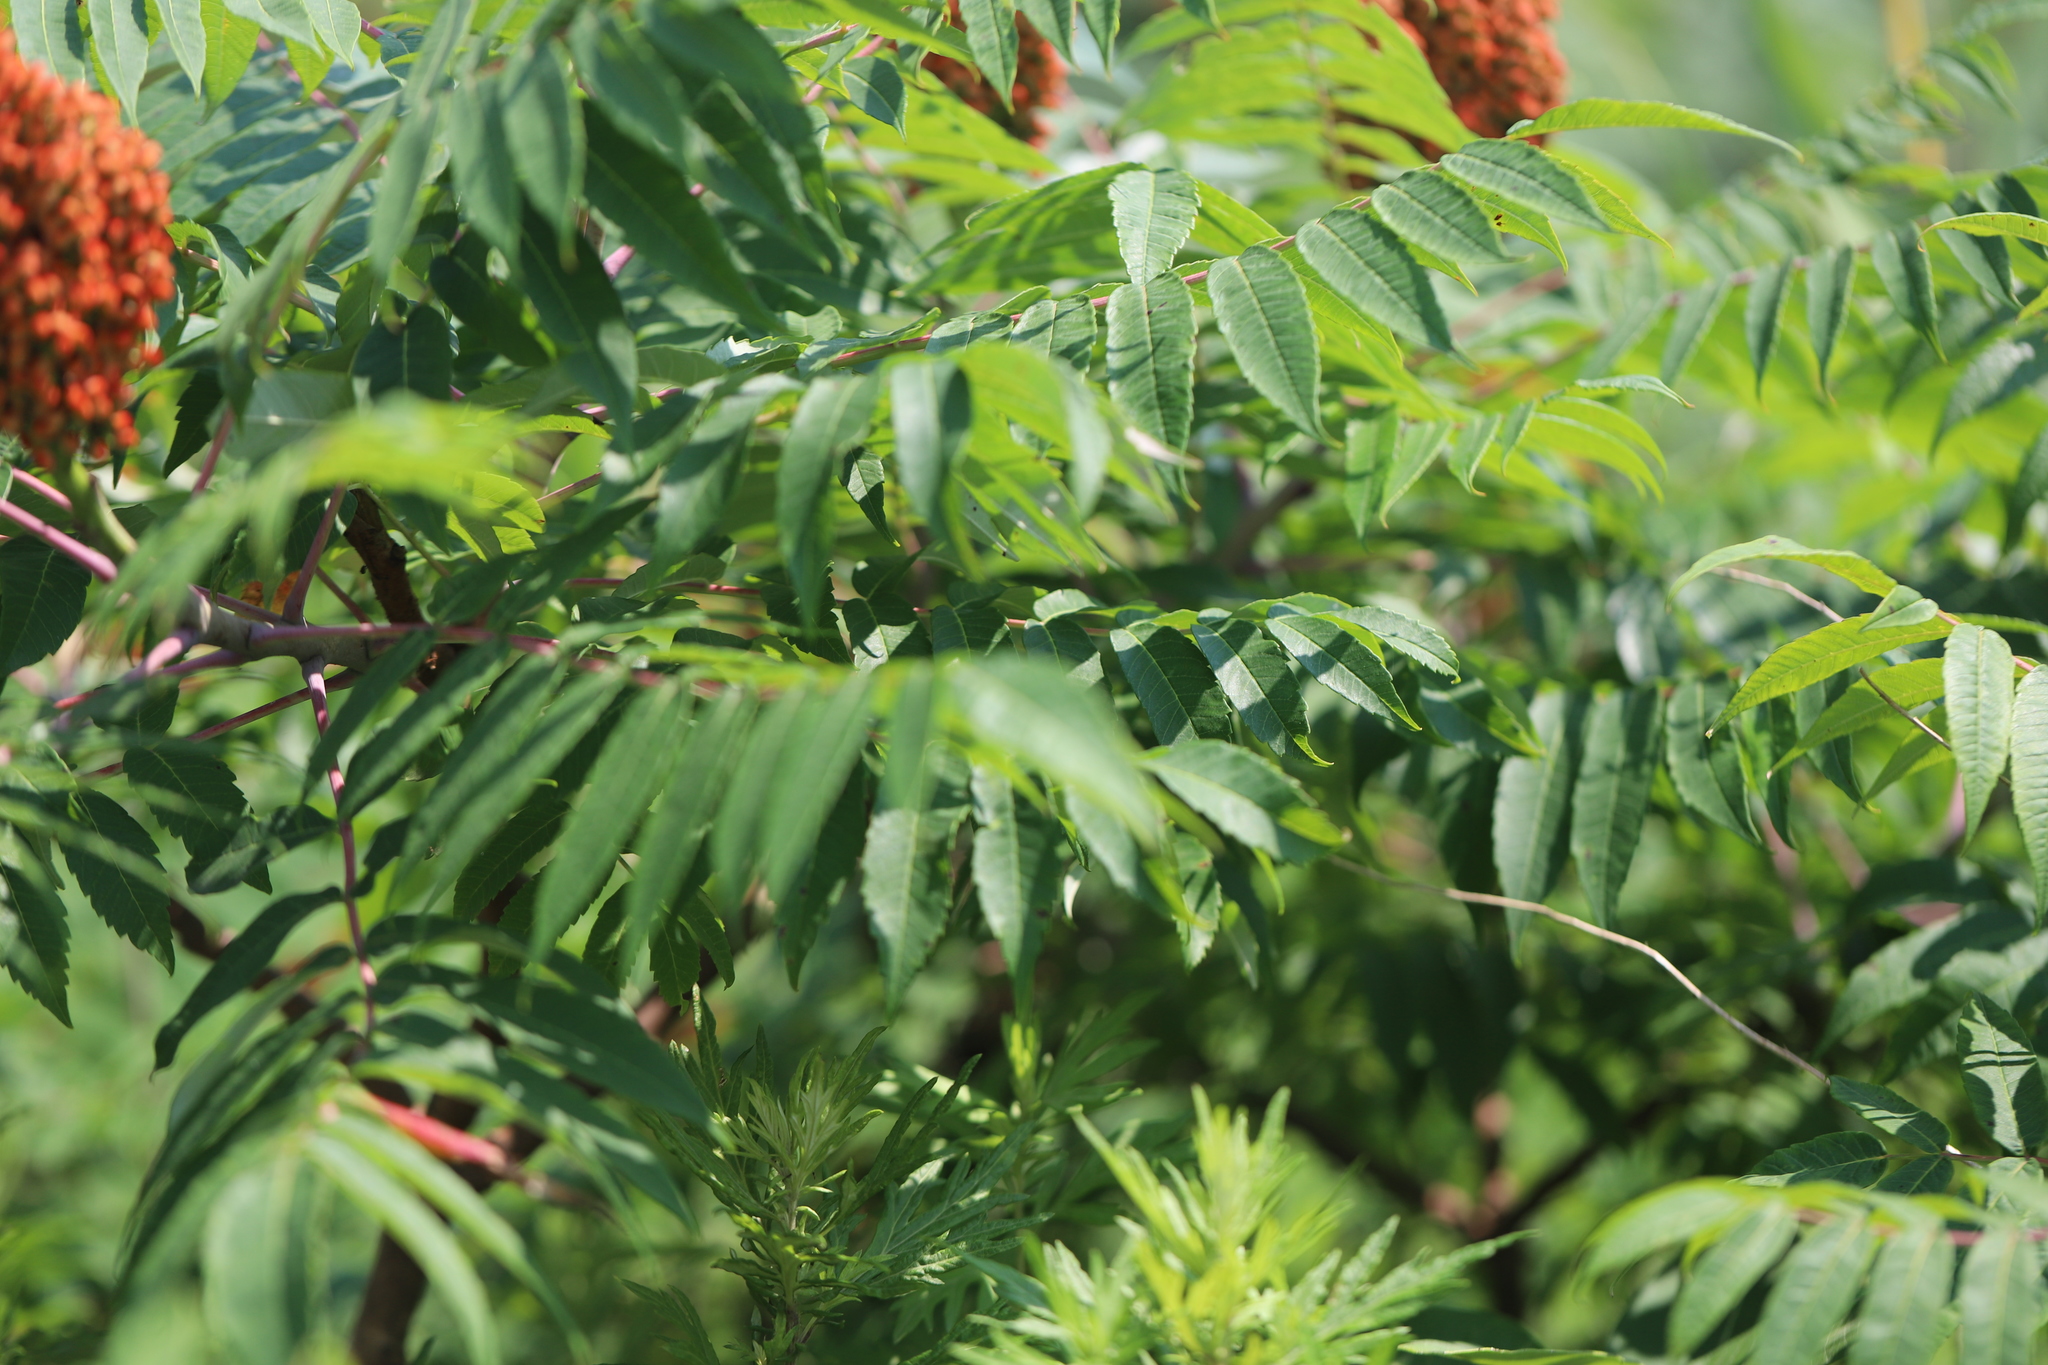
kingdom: Plantae
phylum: Tracheophyta
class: Magnoliopsida
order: Sapindales
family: Anacardiaceae
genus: Rhus
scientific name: Rhus glabra
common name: Scarlet sumac
